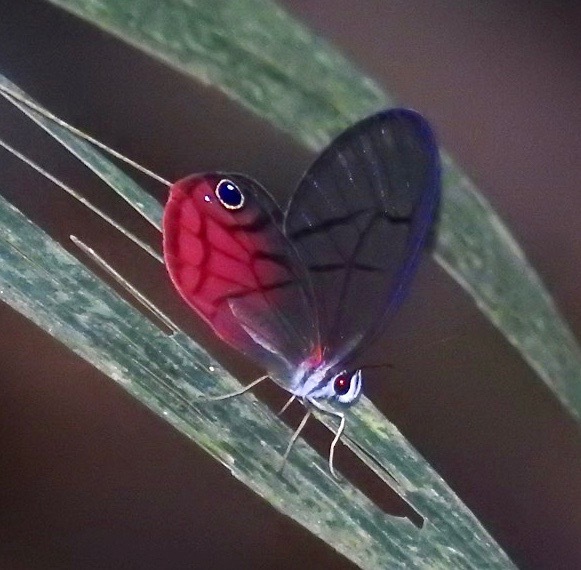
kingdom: Animalia
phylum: Arthropoda
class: Insecta
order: Lepidoptera
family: Nymphalidae
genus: Cithaerias
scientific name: Cithaerias pireta
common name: Rusted clearwing-satyr
